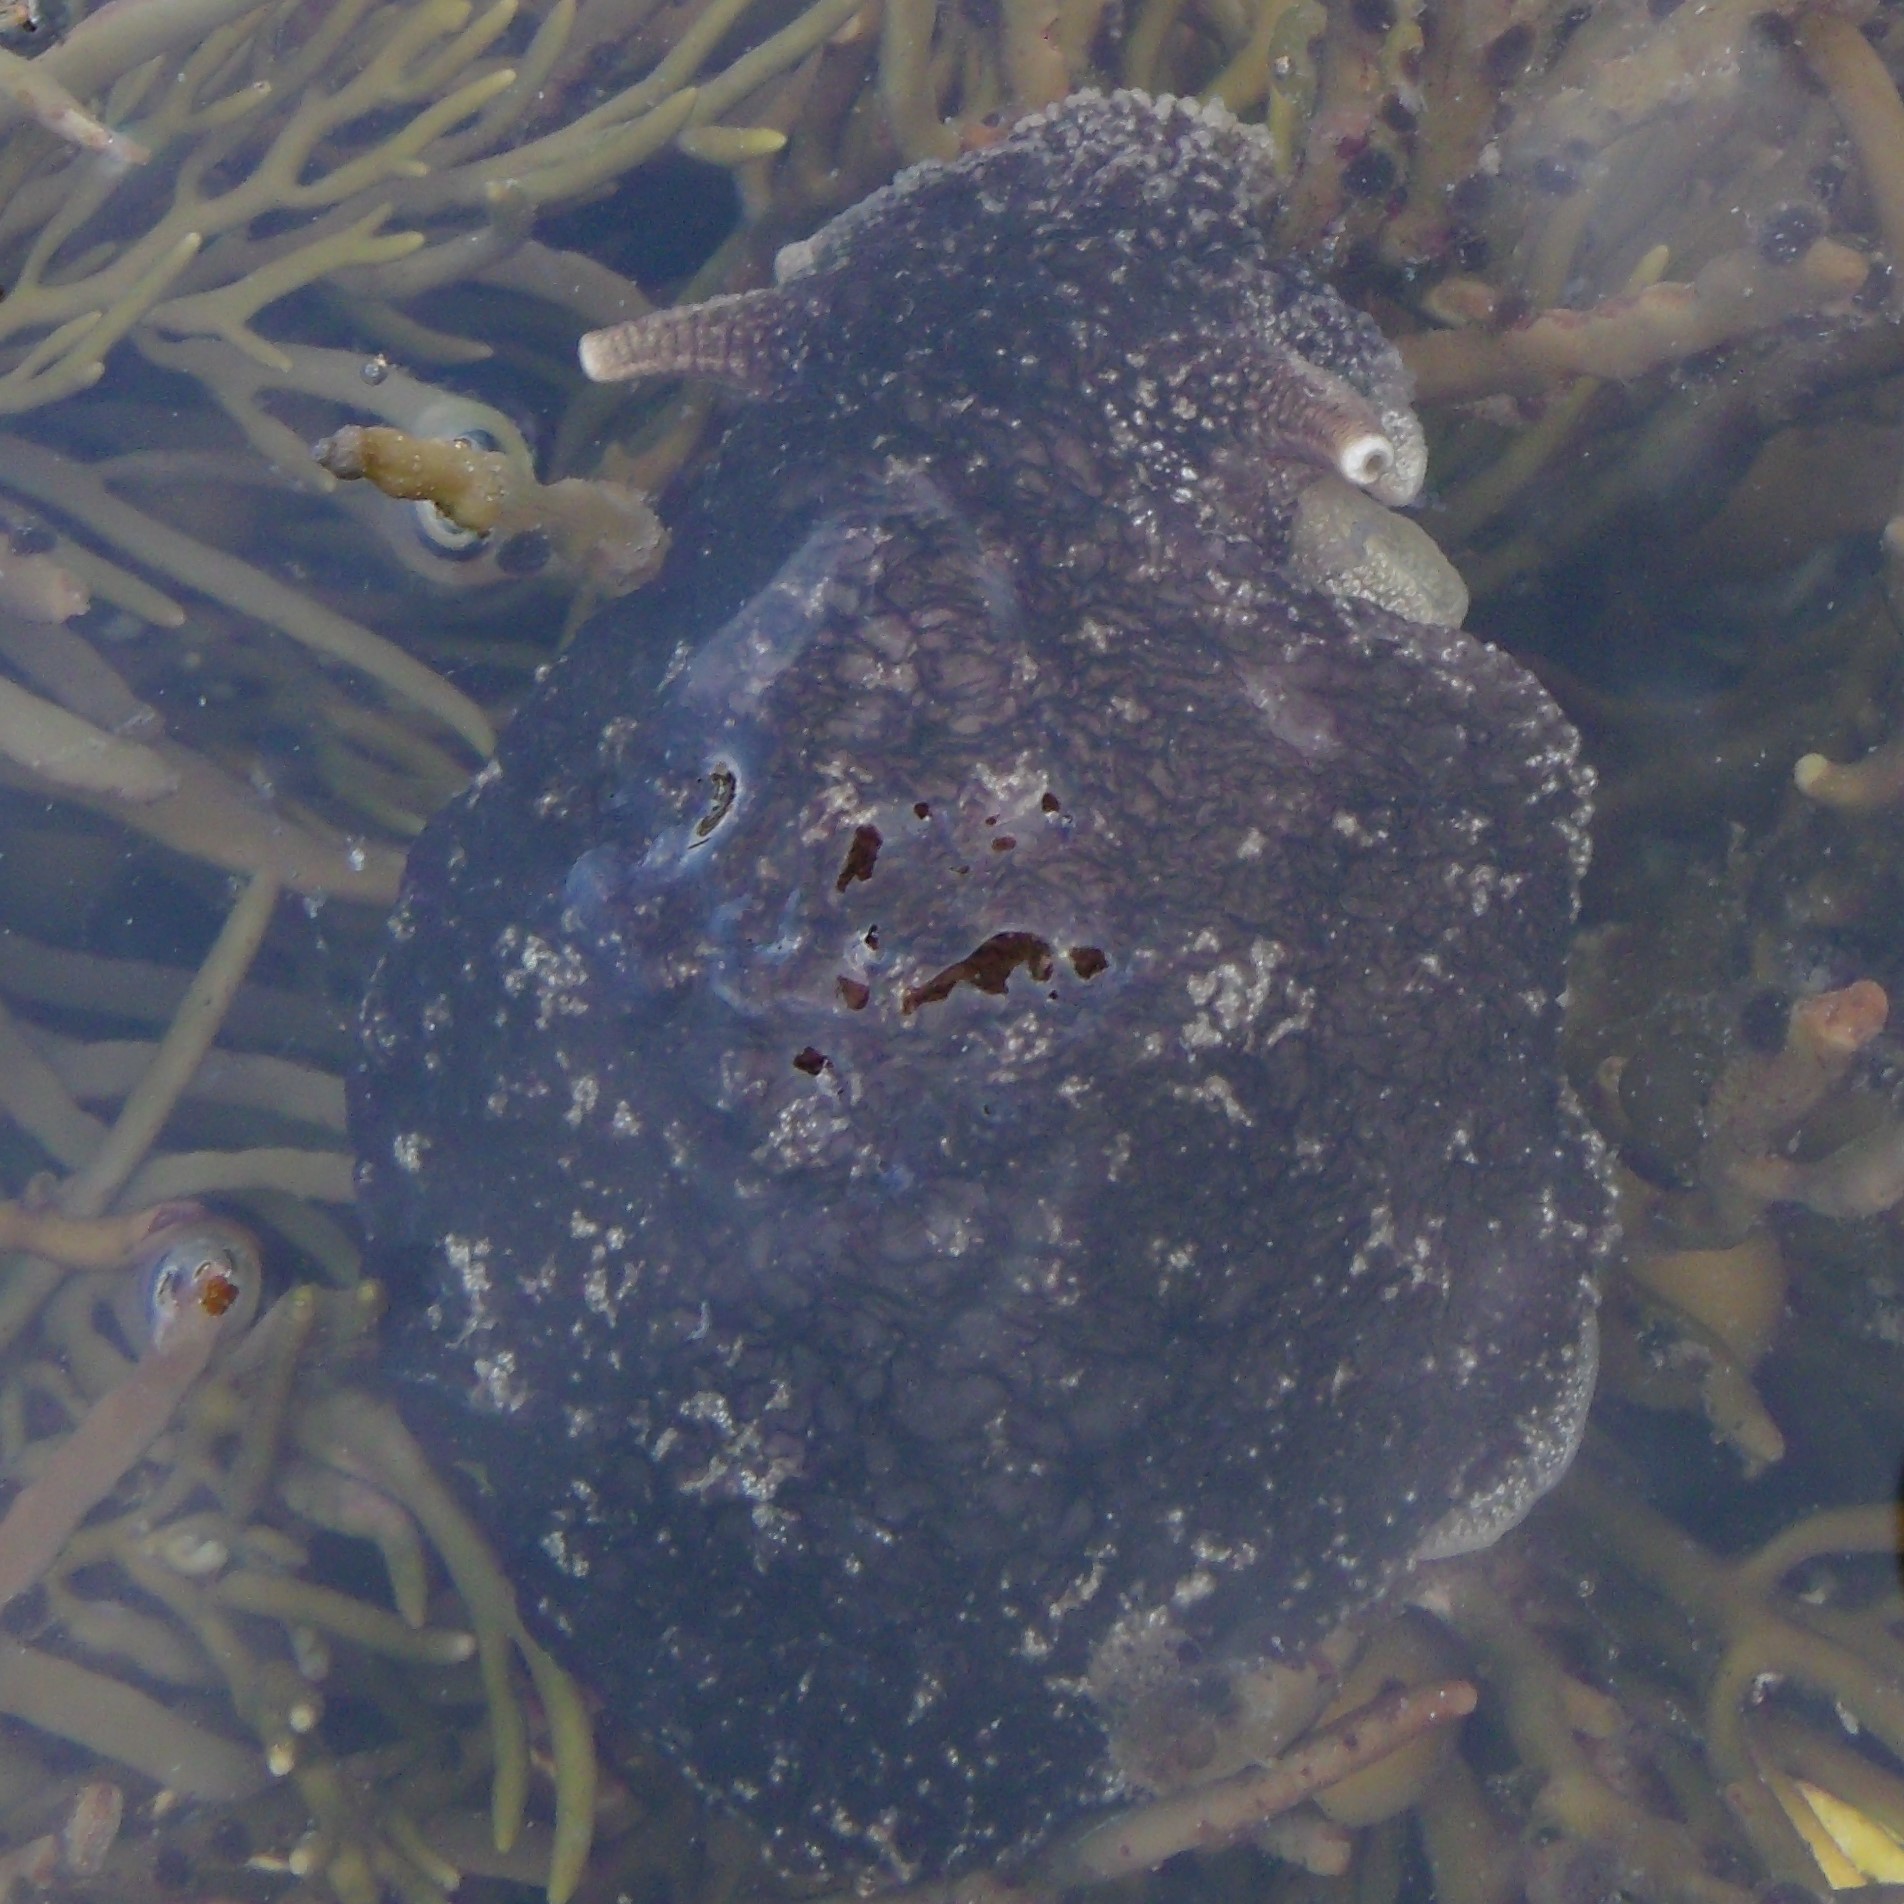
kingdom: Animalia
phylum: Mollusca
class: Gastropoda
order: Pleurobranchida
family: Pleurobranchaeidae
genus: Pleurobranchaea
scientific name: Pleurobranchaea maculata
